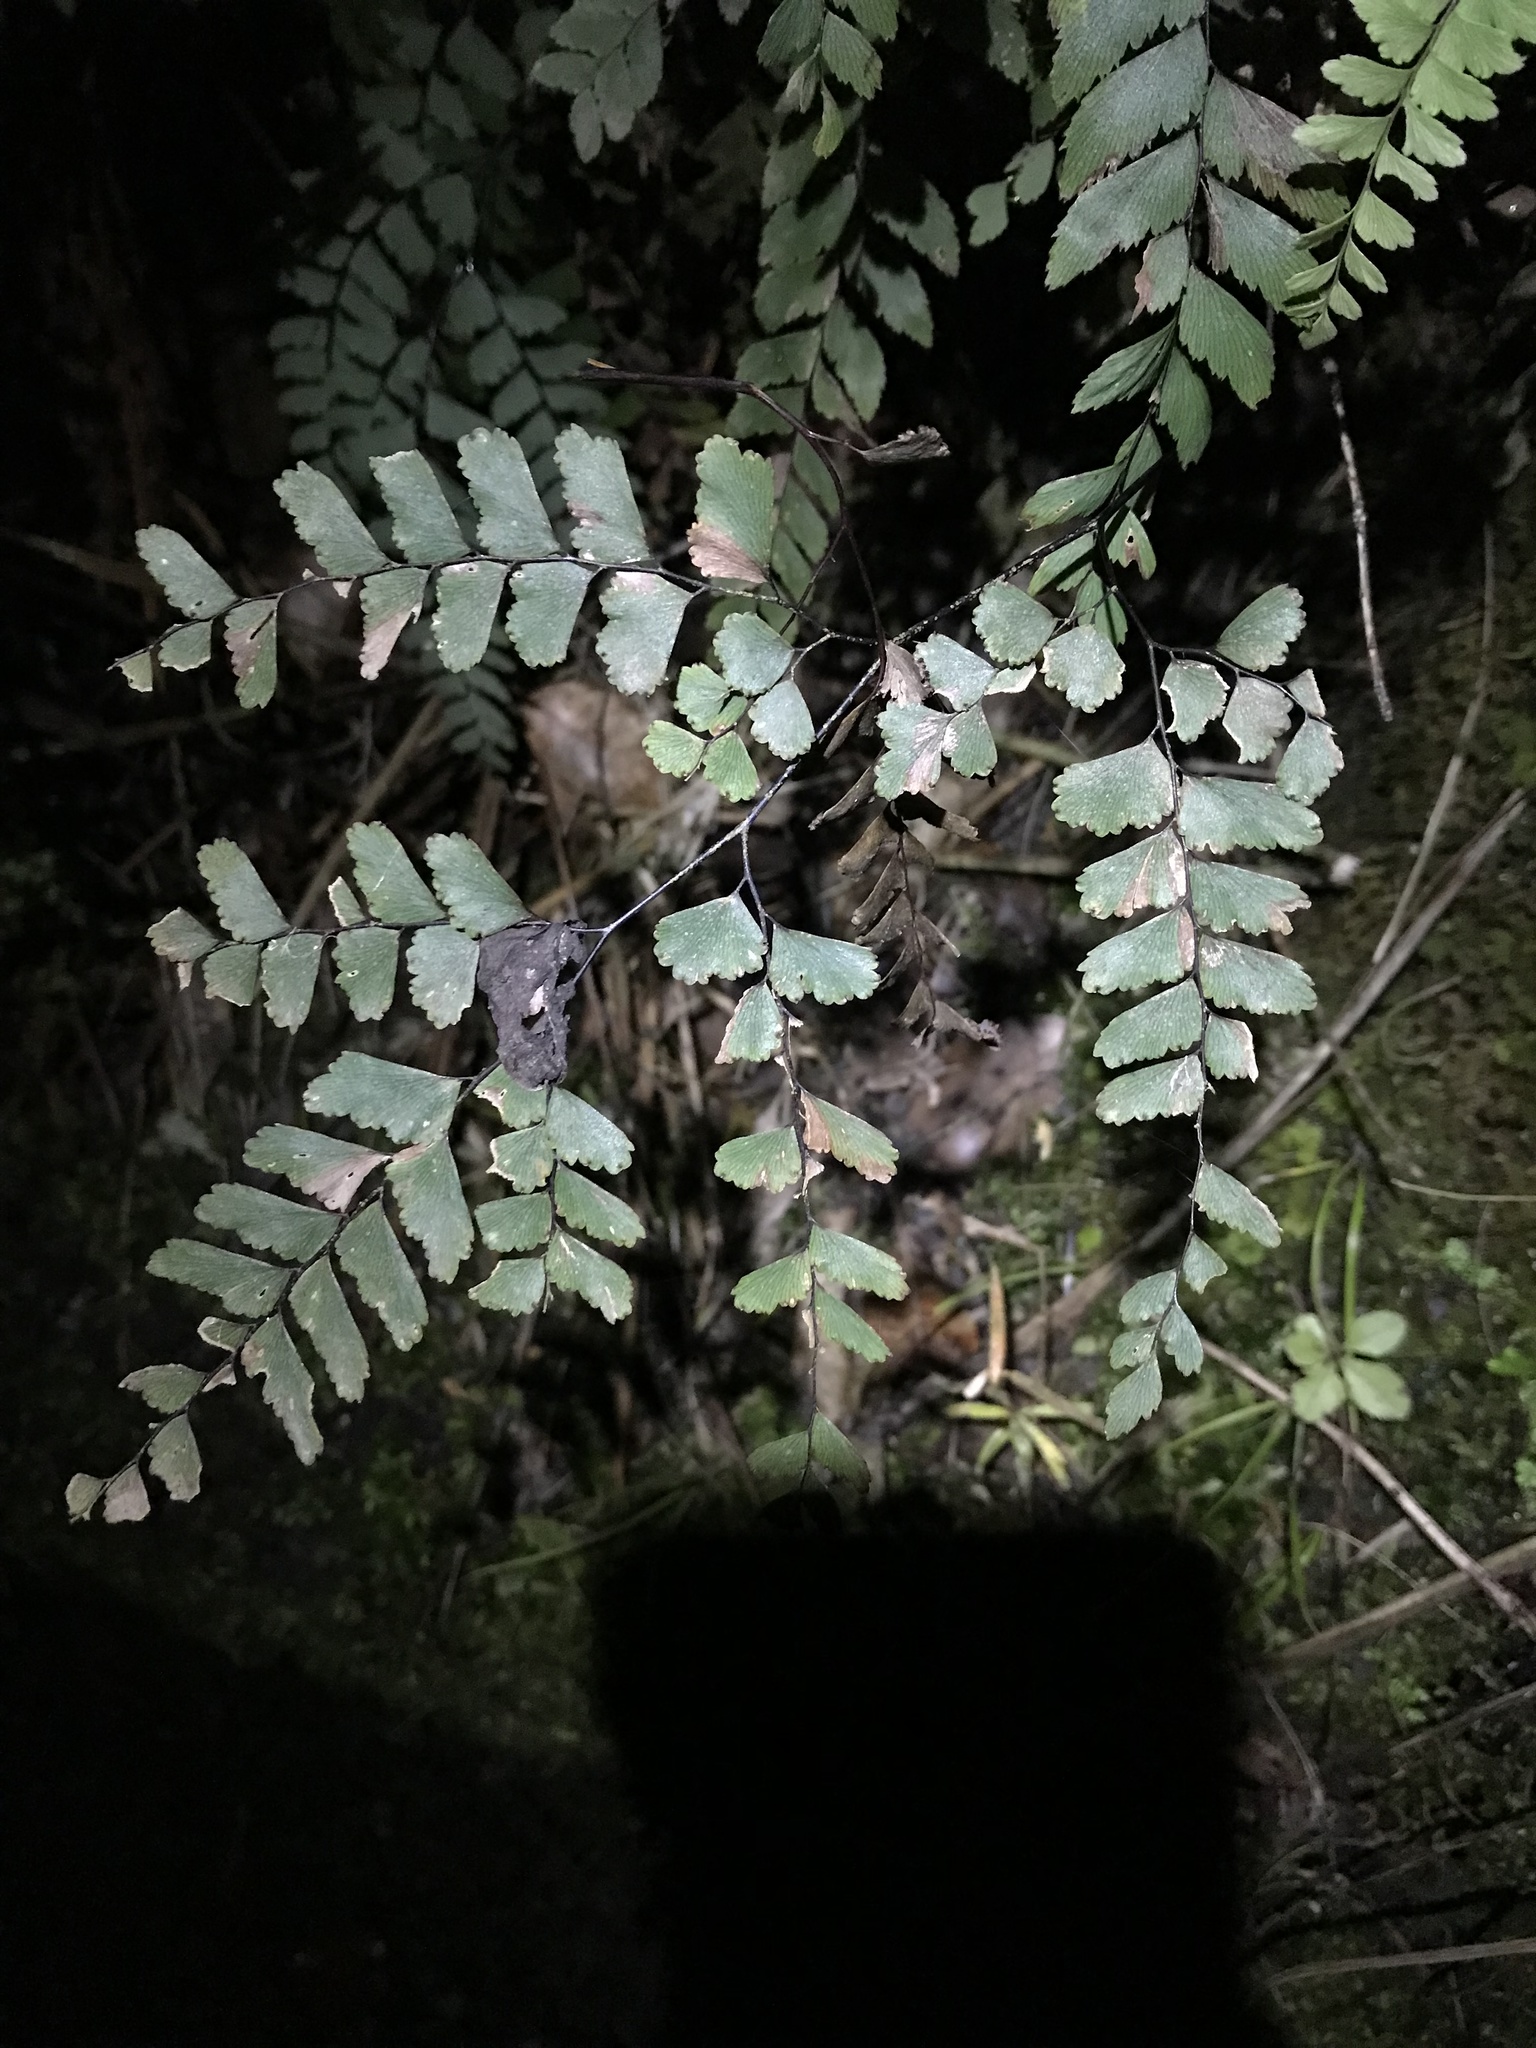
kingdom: Plantae
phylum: Tracheophyta
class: Polypodiopsida
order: Polypodiales
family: Pteridaceae
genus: Adiantum
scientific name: Adiantum cunninghamii
